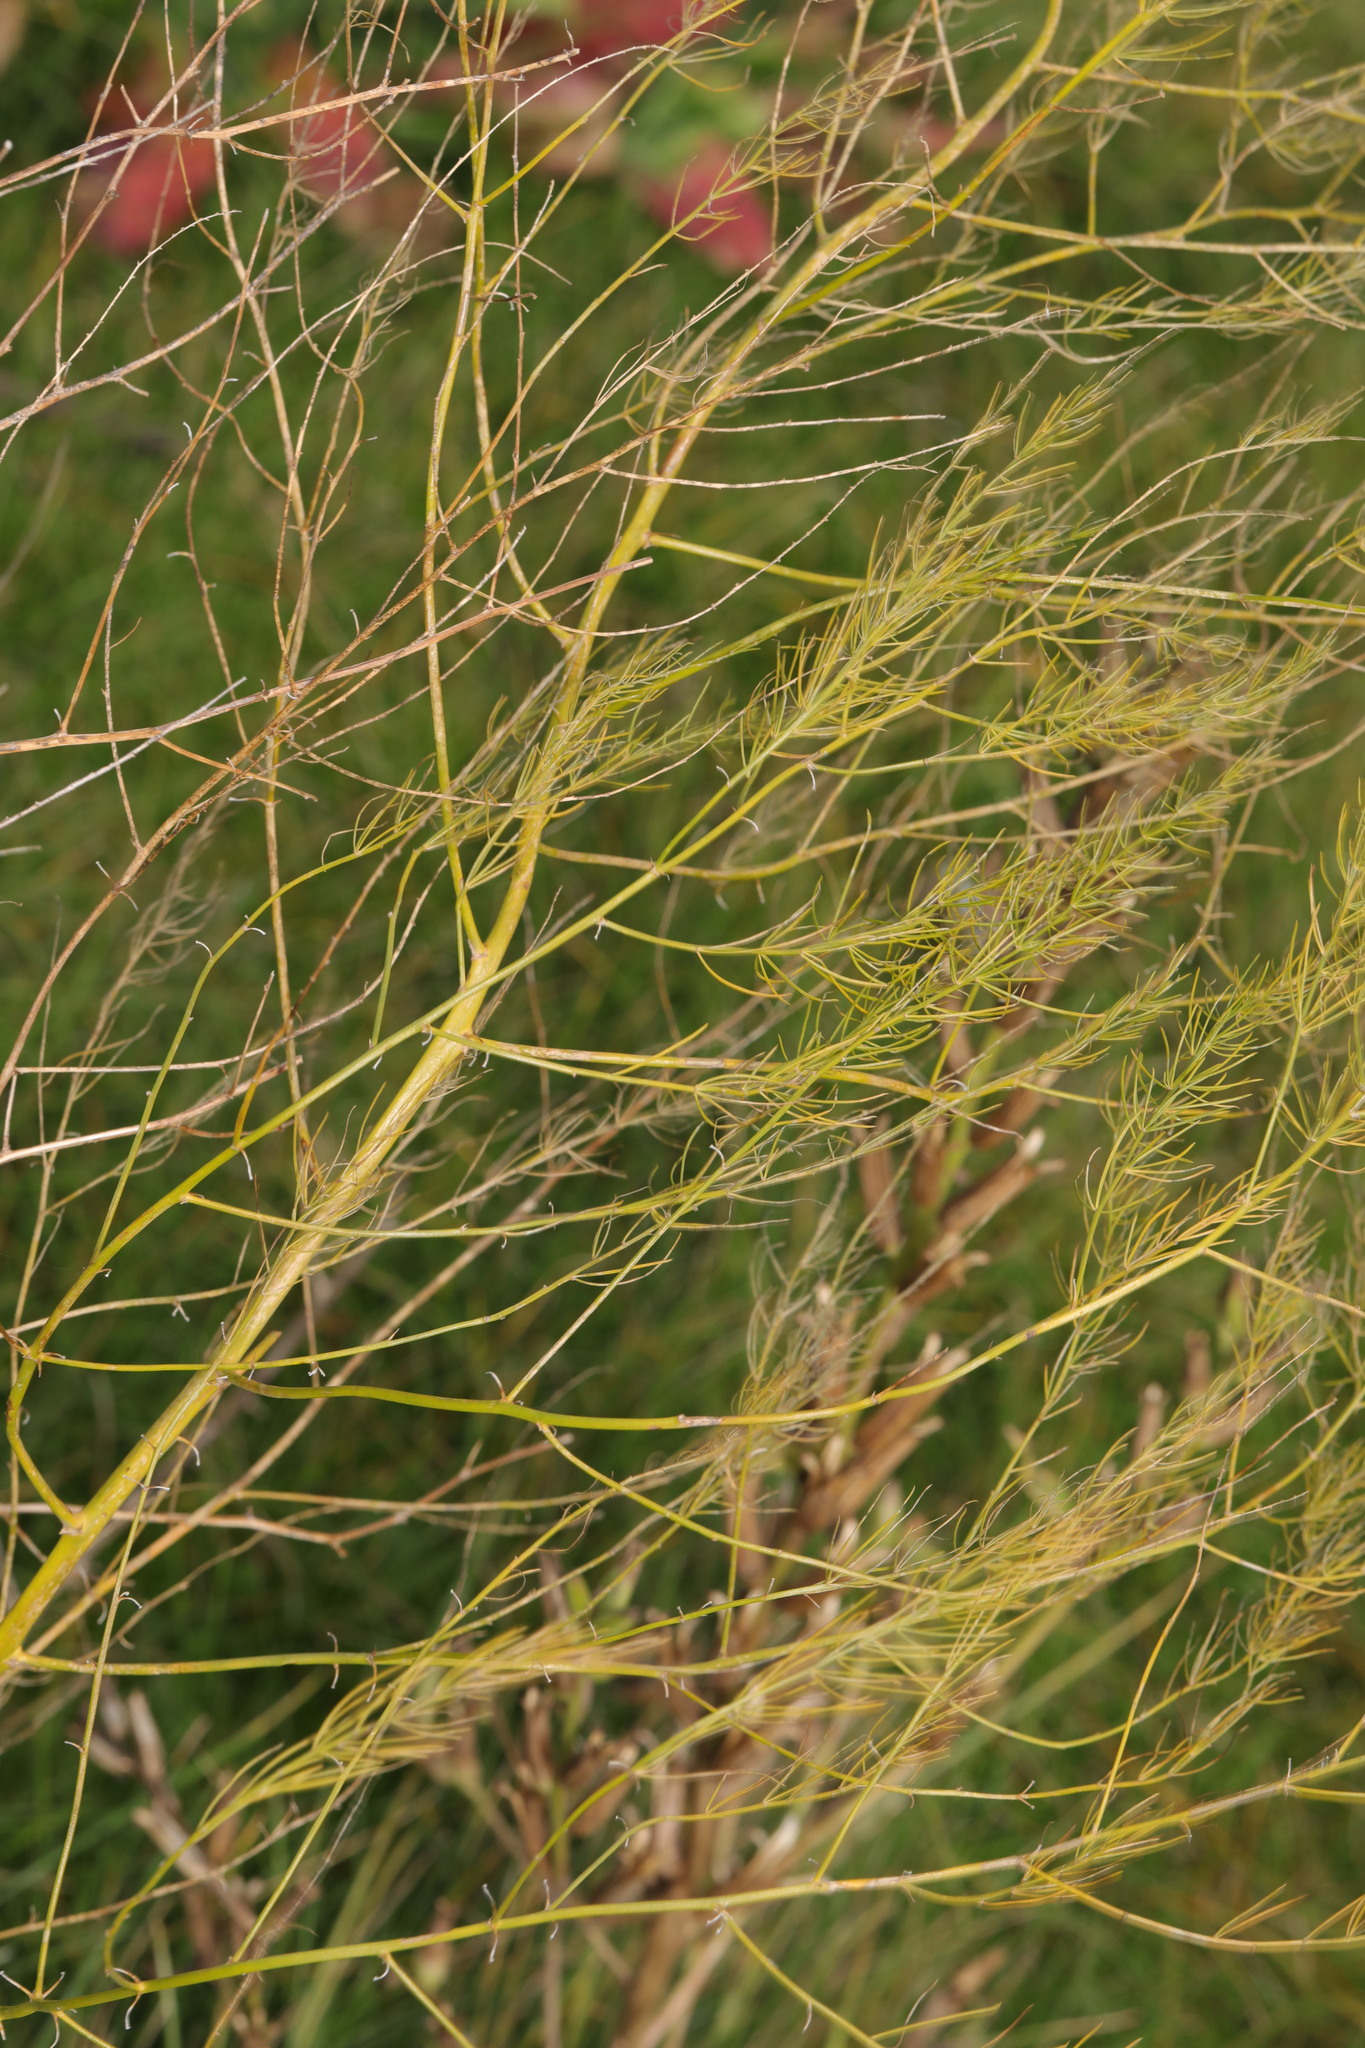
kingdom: Plantae
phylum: Tracheophyta
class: Liliopsida
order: Asparagales
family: Asparagaceae
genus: Asparagus
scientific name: Asparagus officinalis
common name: Garden asparagus
